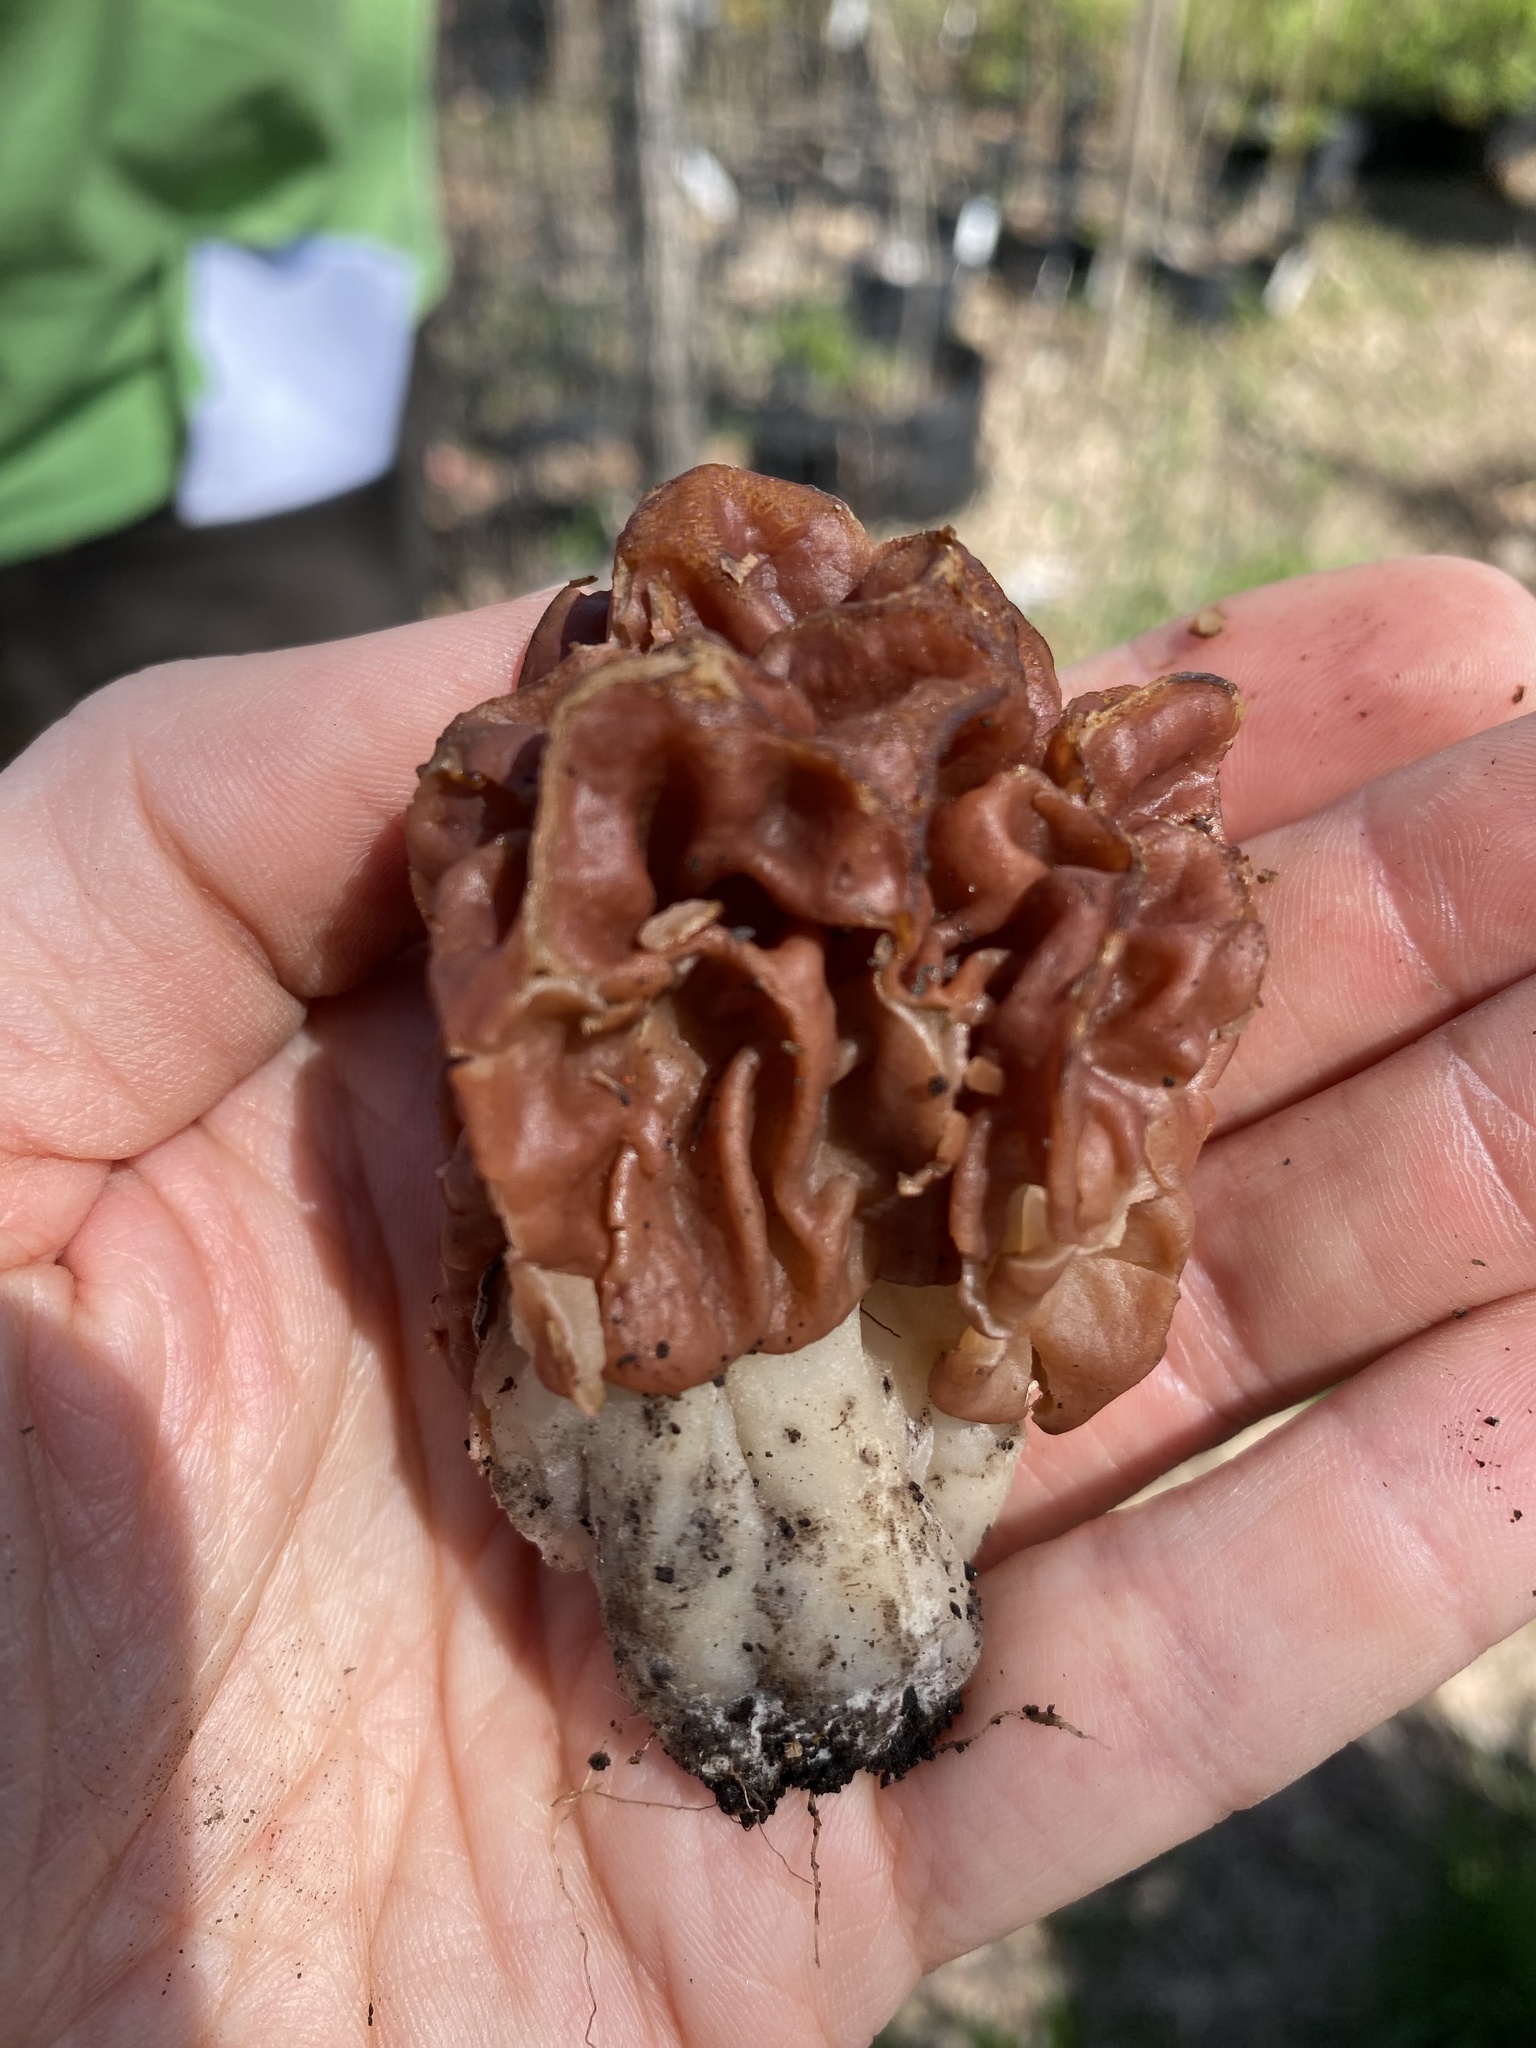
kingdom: Fungi
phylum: Ascomycota
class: Pezizomycetes
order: Pezizales
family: Discinaceae
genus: Discina
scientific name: Discina caroliniana
